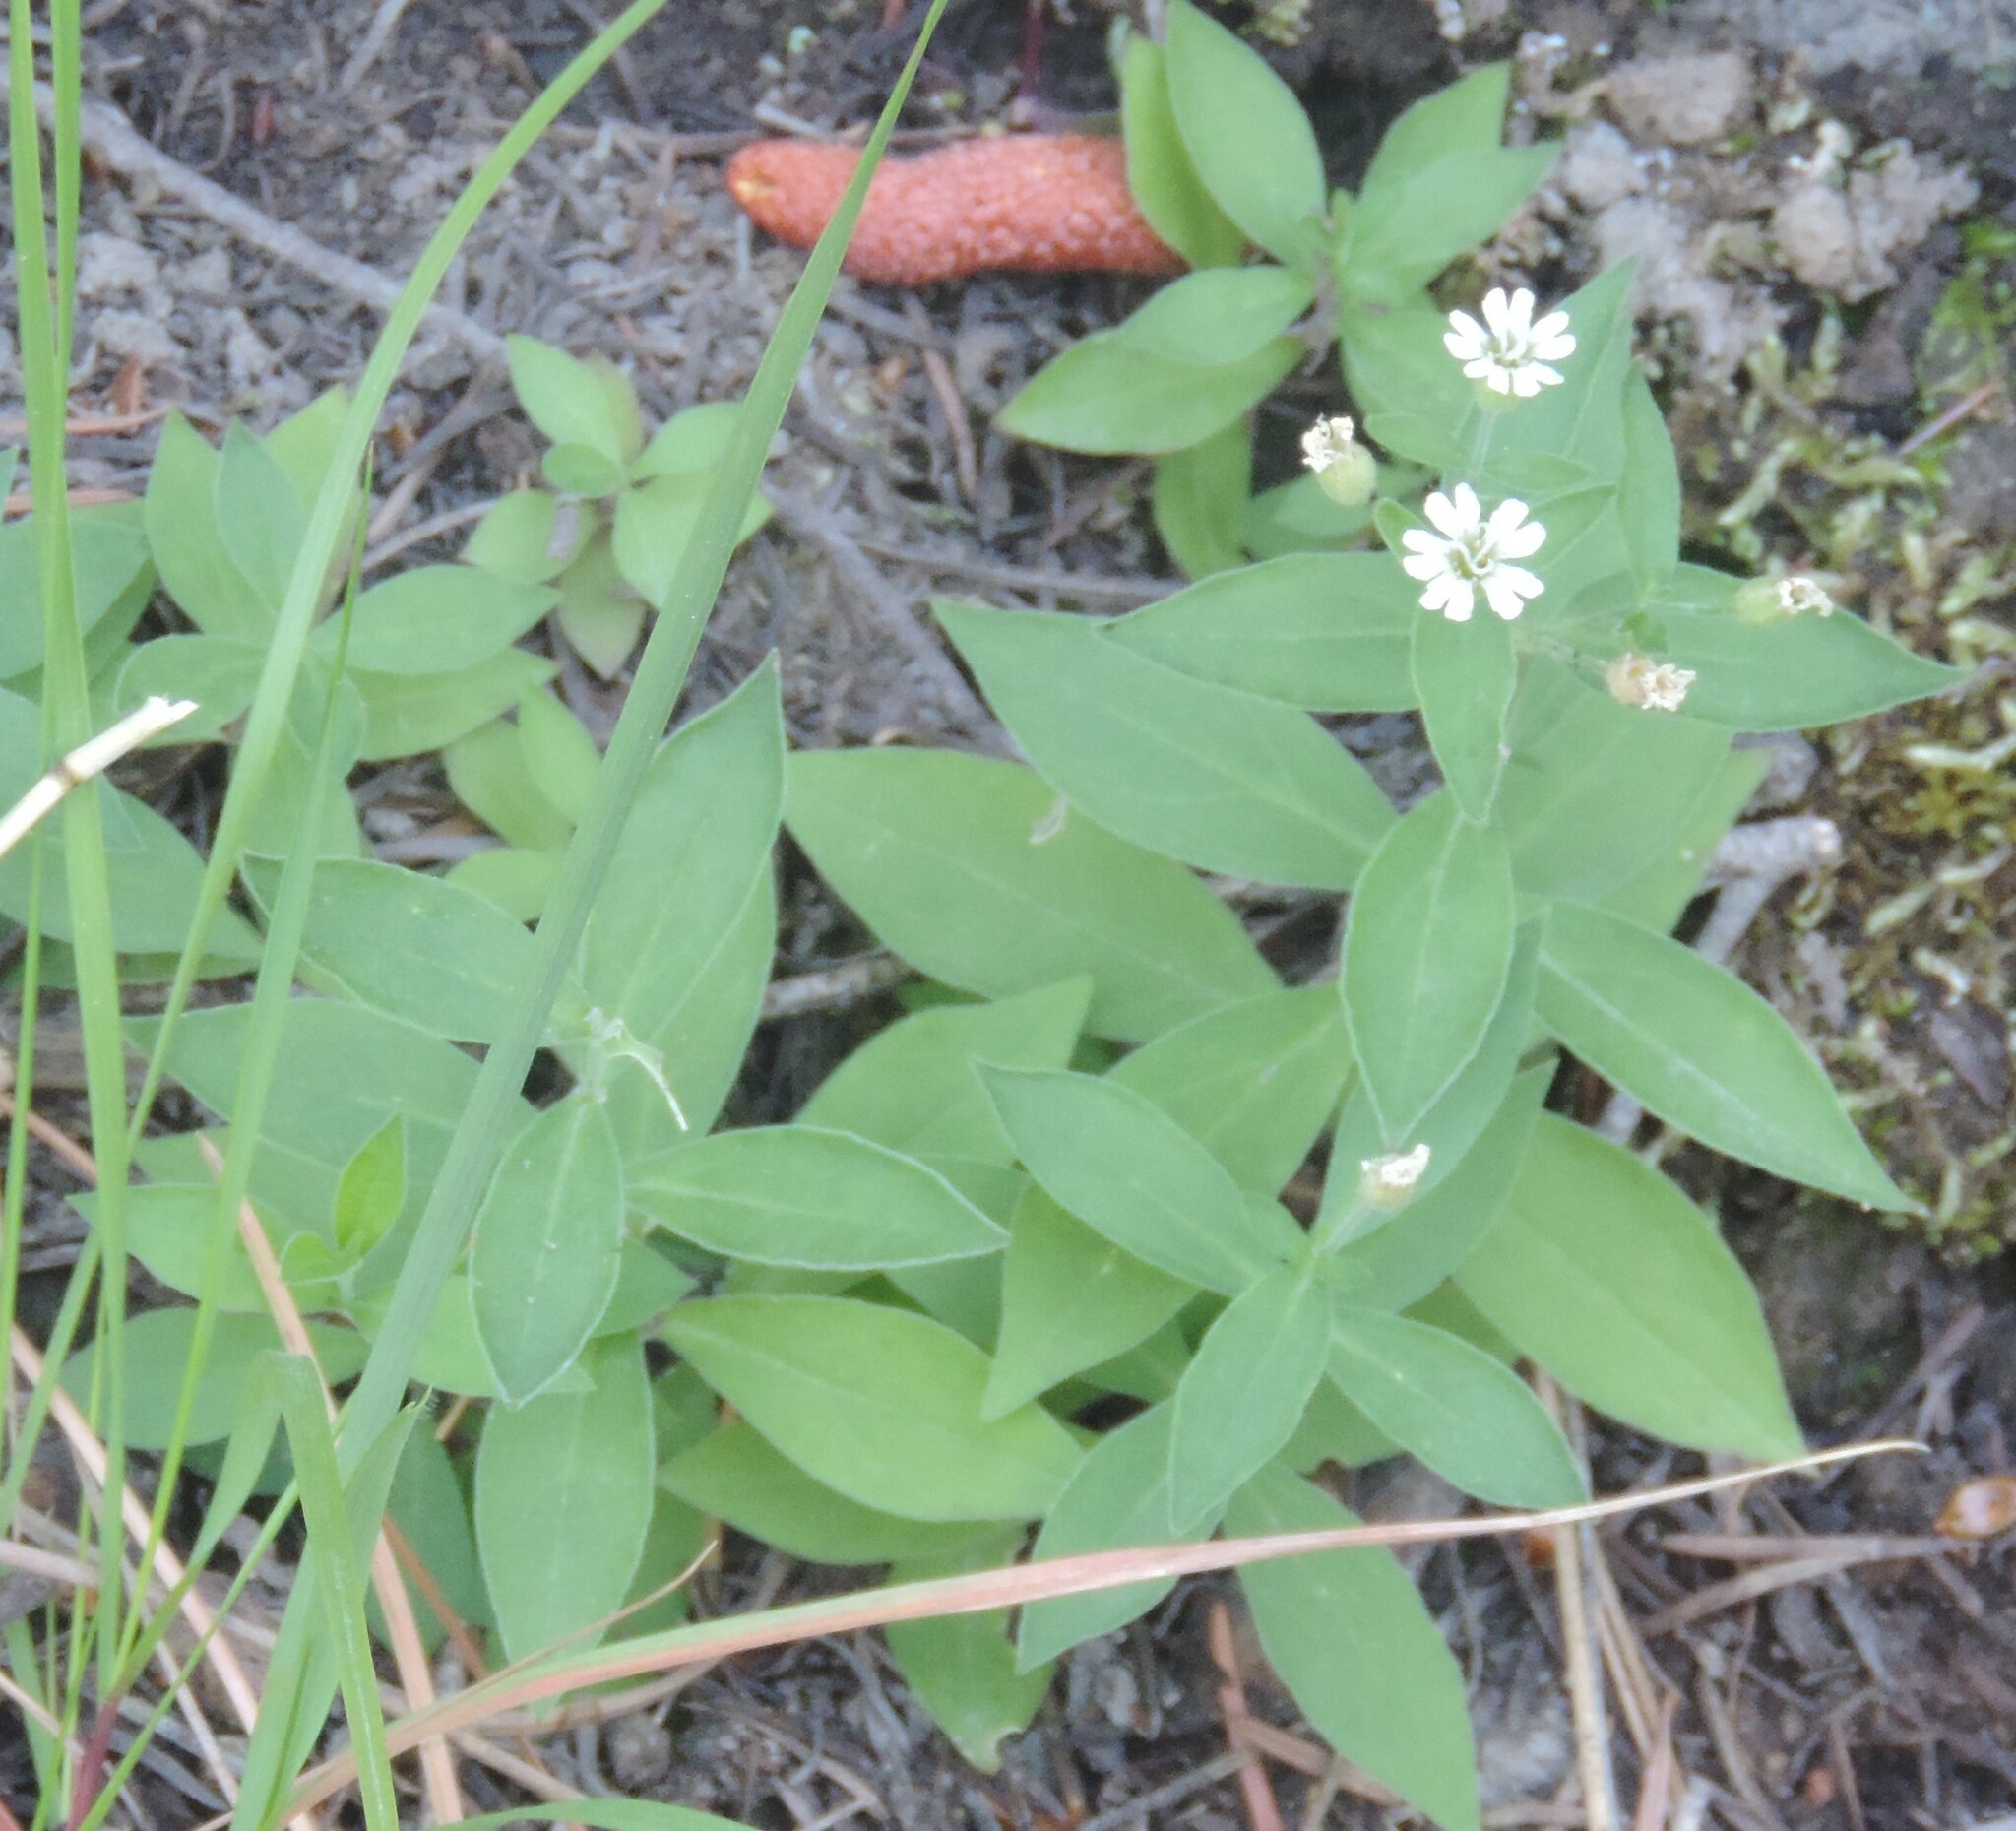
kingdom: Plantae
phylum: Tracheophyta
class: Magnoliopsida
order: Caryophyllales
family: Caryophyllaceae
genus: Silene
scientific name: Silene menziesii
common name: Menzies's catchfly
